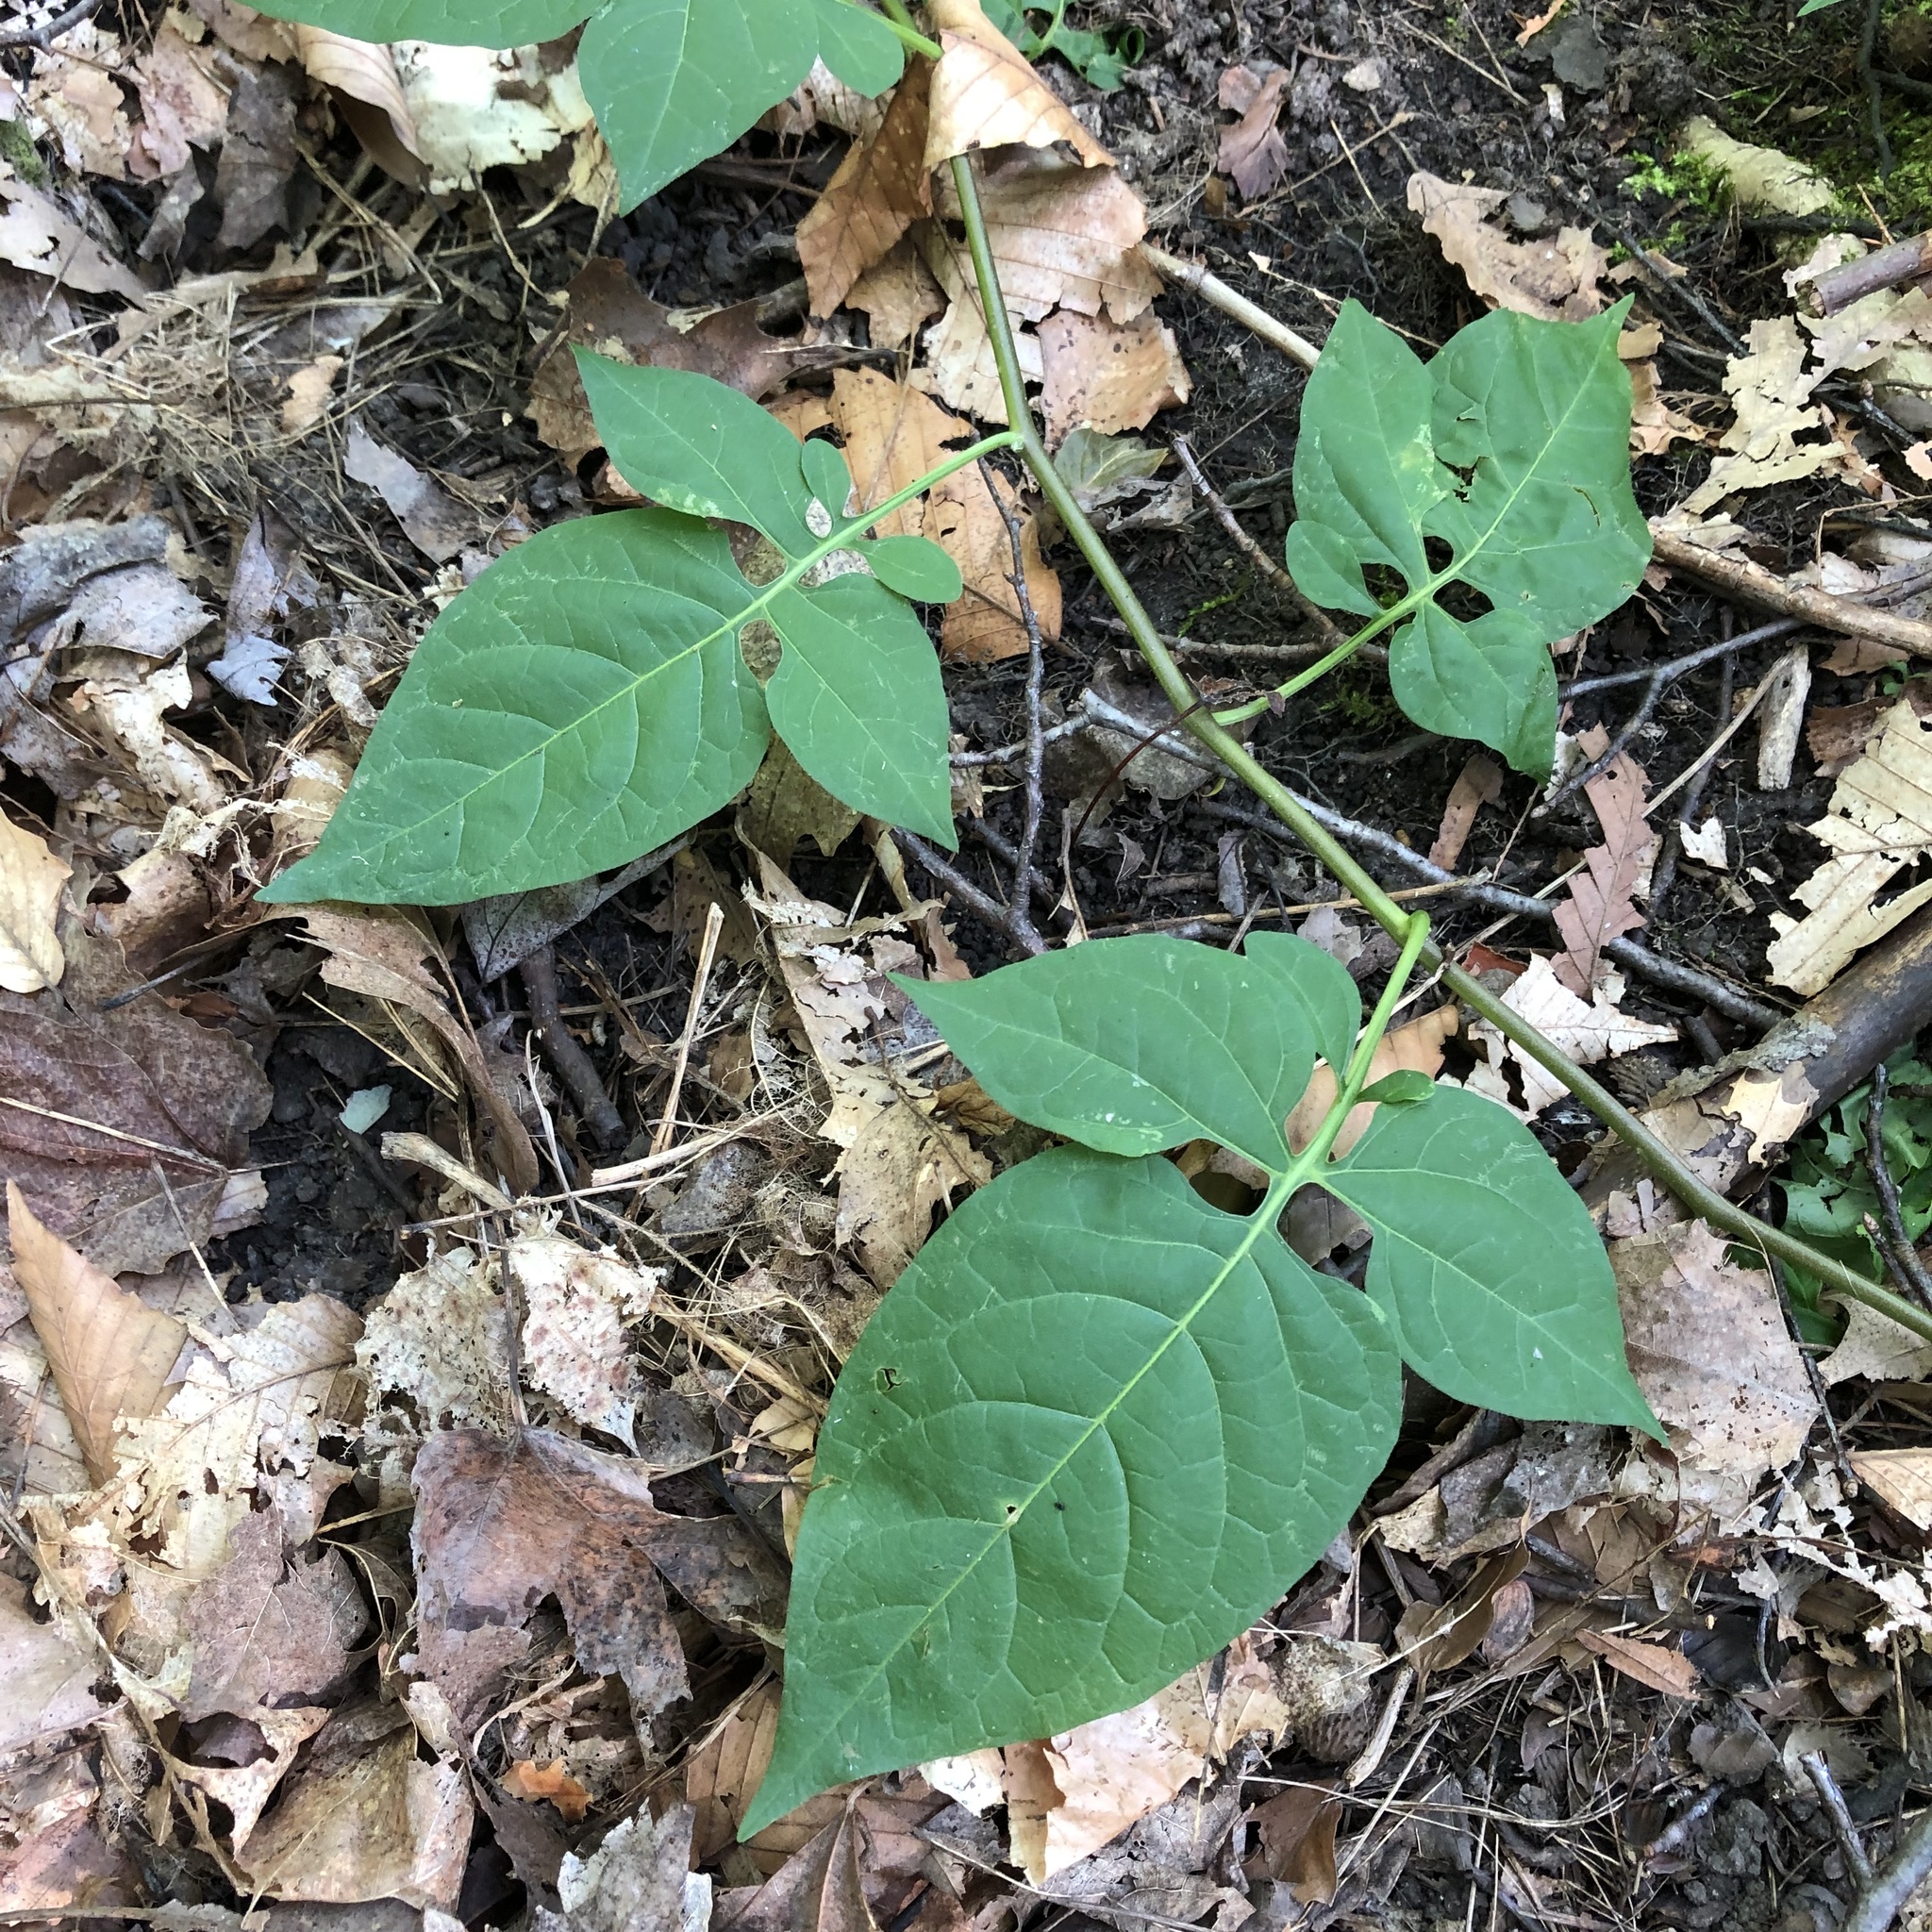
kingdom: Plantae
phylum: Tracheophyta
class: Magnoliopsida
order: Solanales
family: Solanaceae
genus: Solanum
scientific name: Solanum dulcamara
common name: Climbing nightshade
